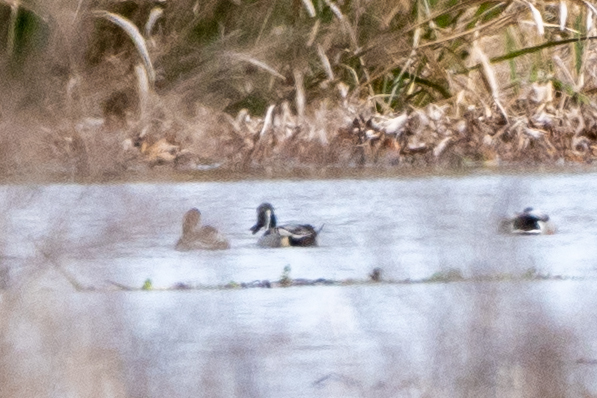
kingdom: Animalia
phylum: Chordata
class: Aves
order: Anseriformes
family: Anatidae
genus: Anas
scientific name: Anas acuta
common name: Northern pintail
